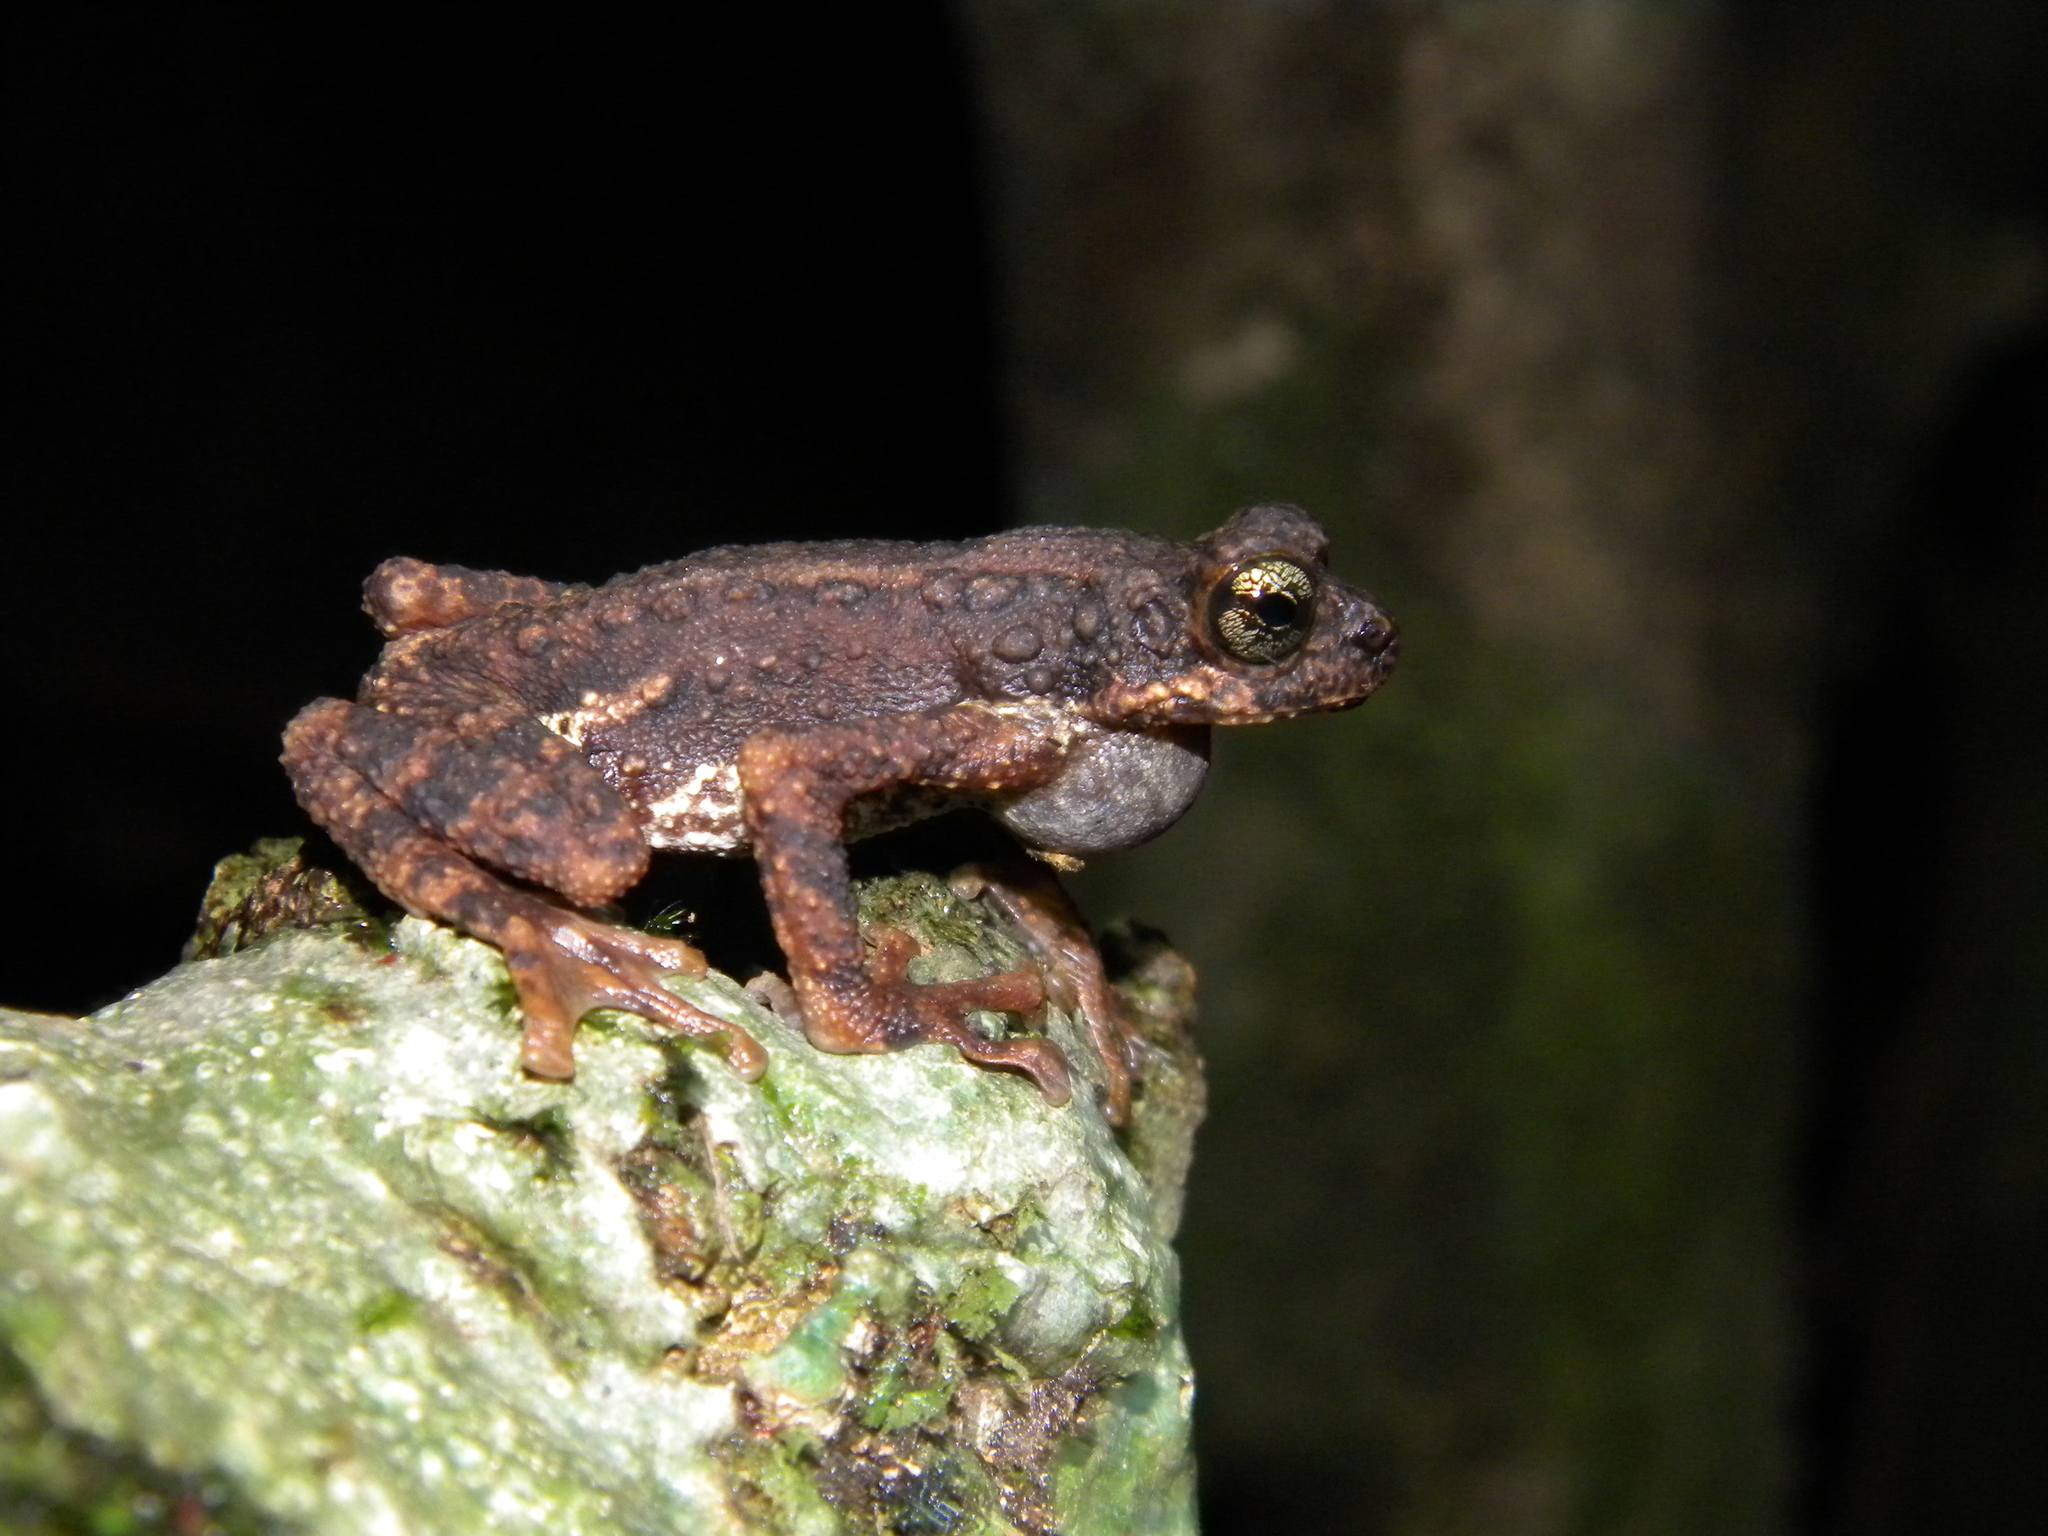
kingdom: Animalia
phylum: Chordata
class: Amphibia
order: Anura
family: Bufonidae
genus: Pedostibes
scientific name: Pedostibes tuberculosus
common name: Malabar tree toad
